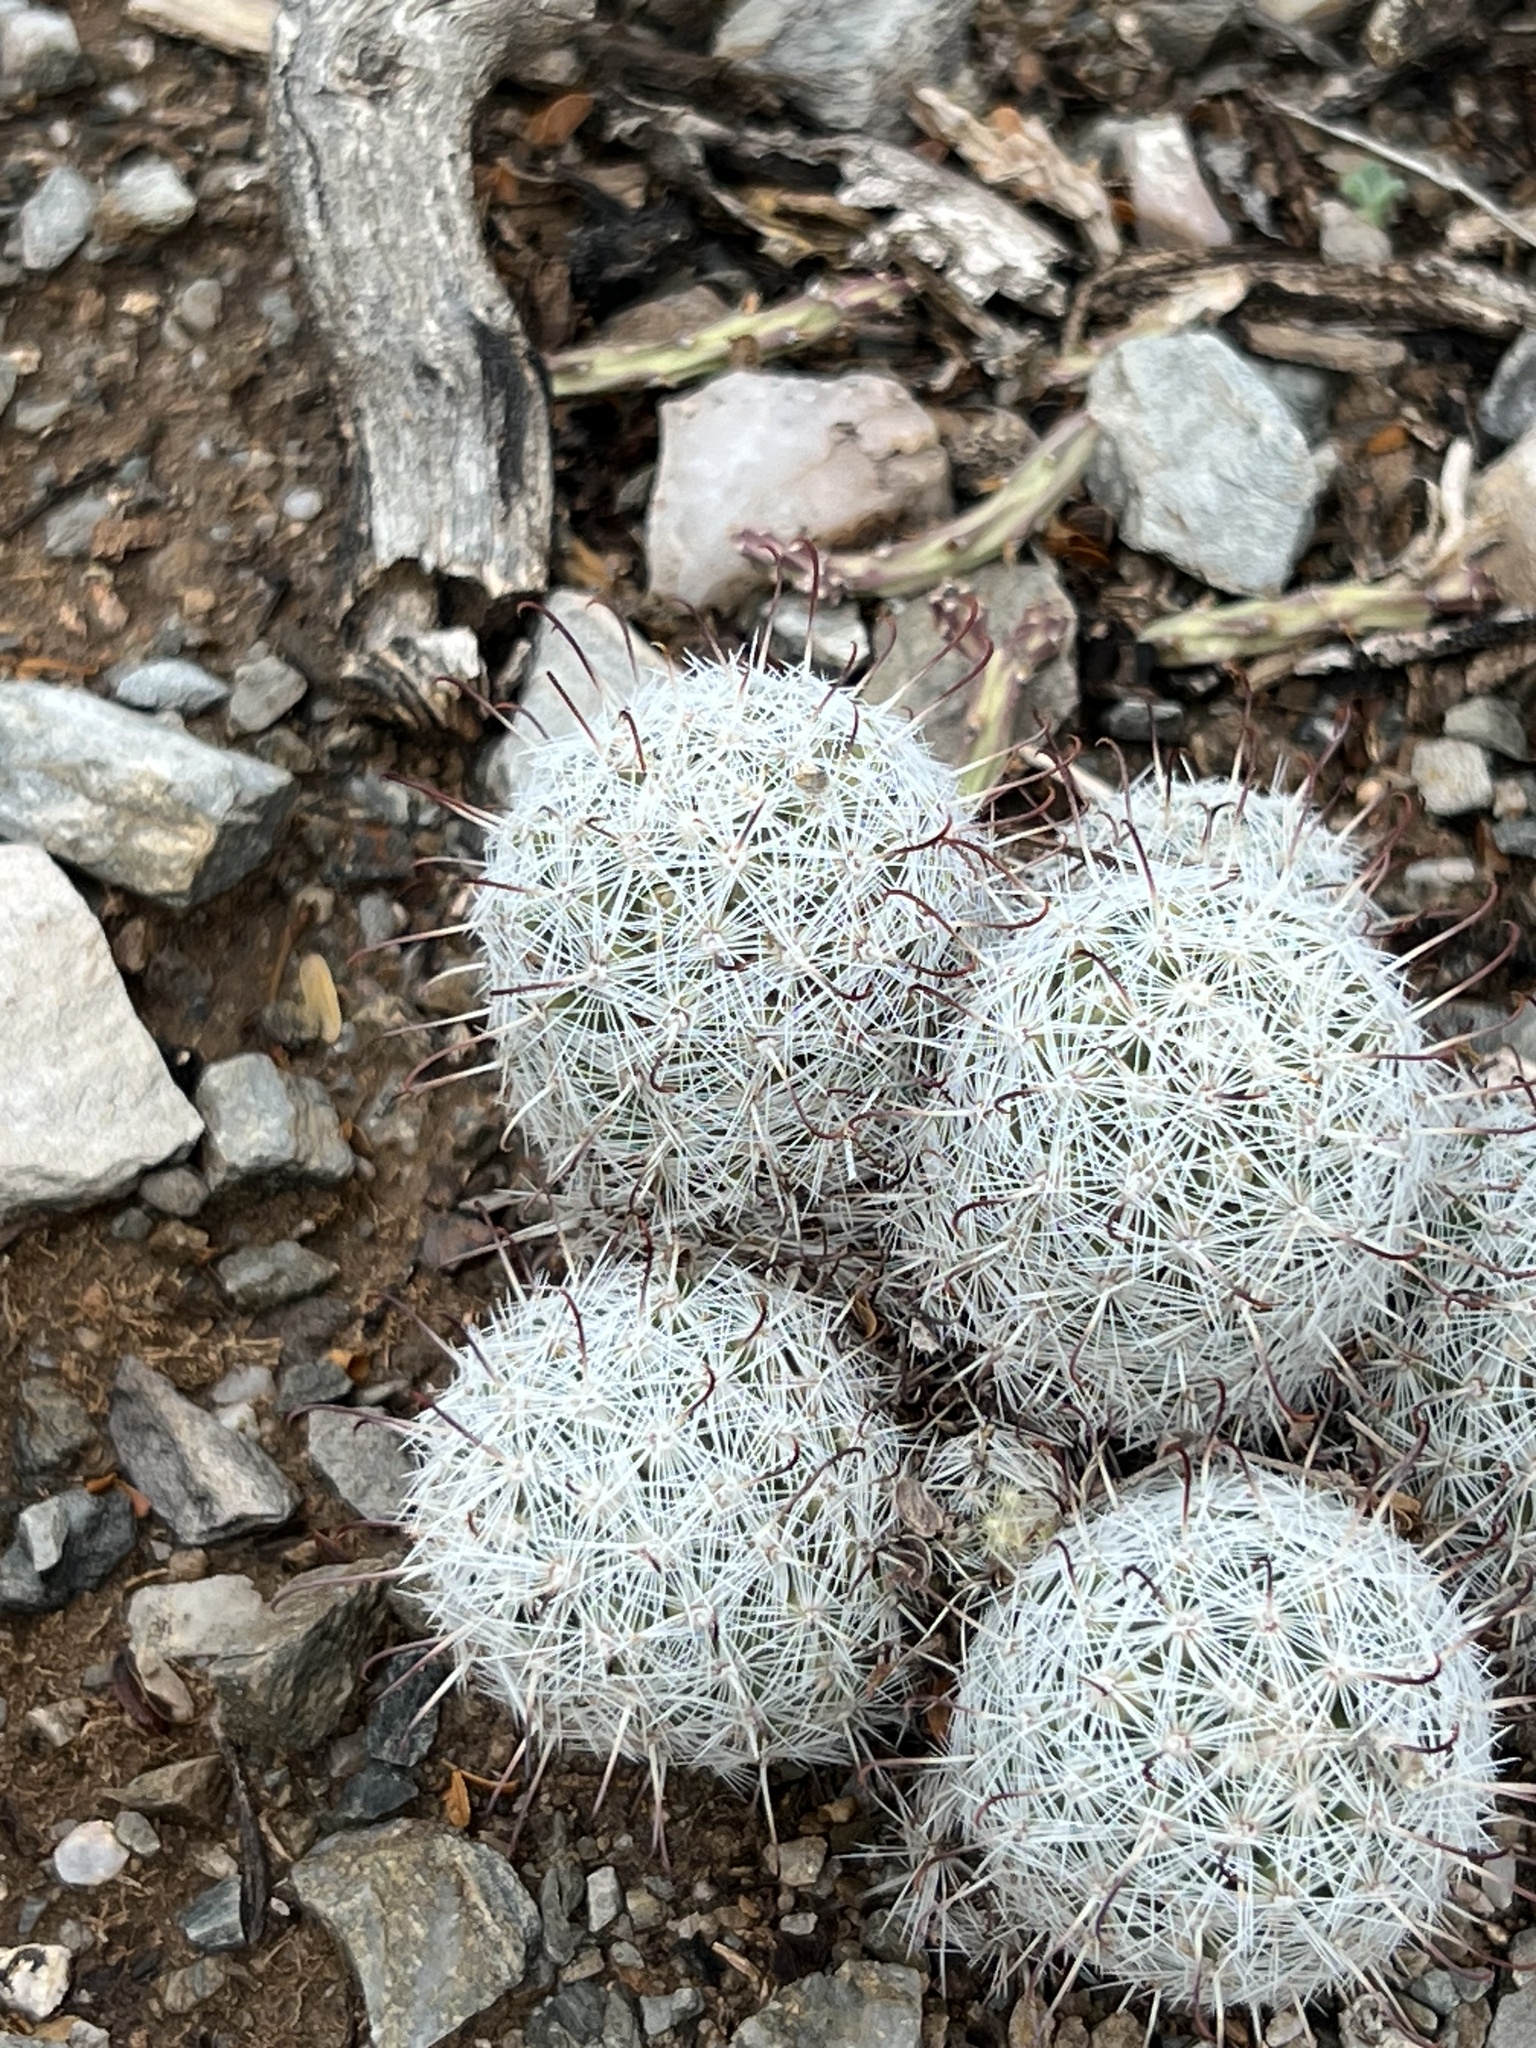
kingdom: Plantae
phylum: Tracheophyta
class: Magnoliopsida
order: Caryophyllales
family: Cactaceae
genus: Cochemiea
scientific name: Cochemiea grahamii
